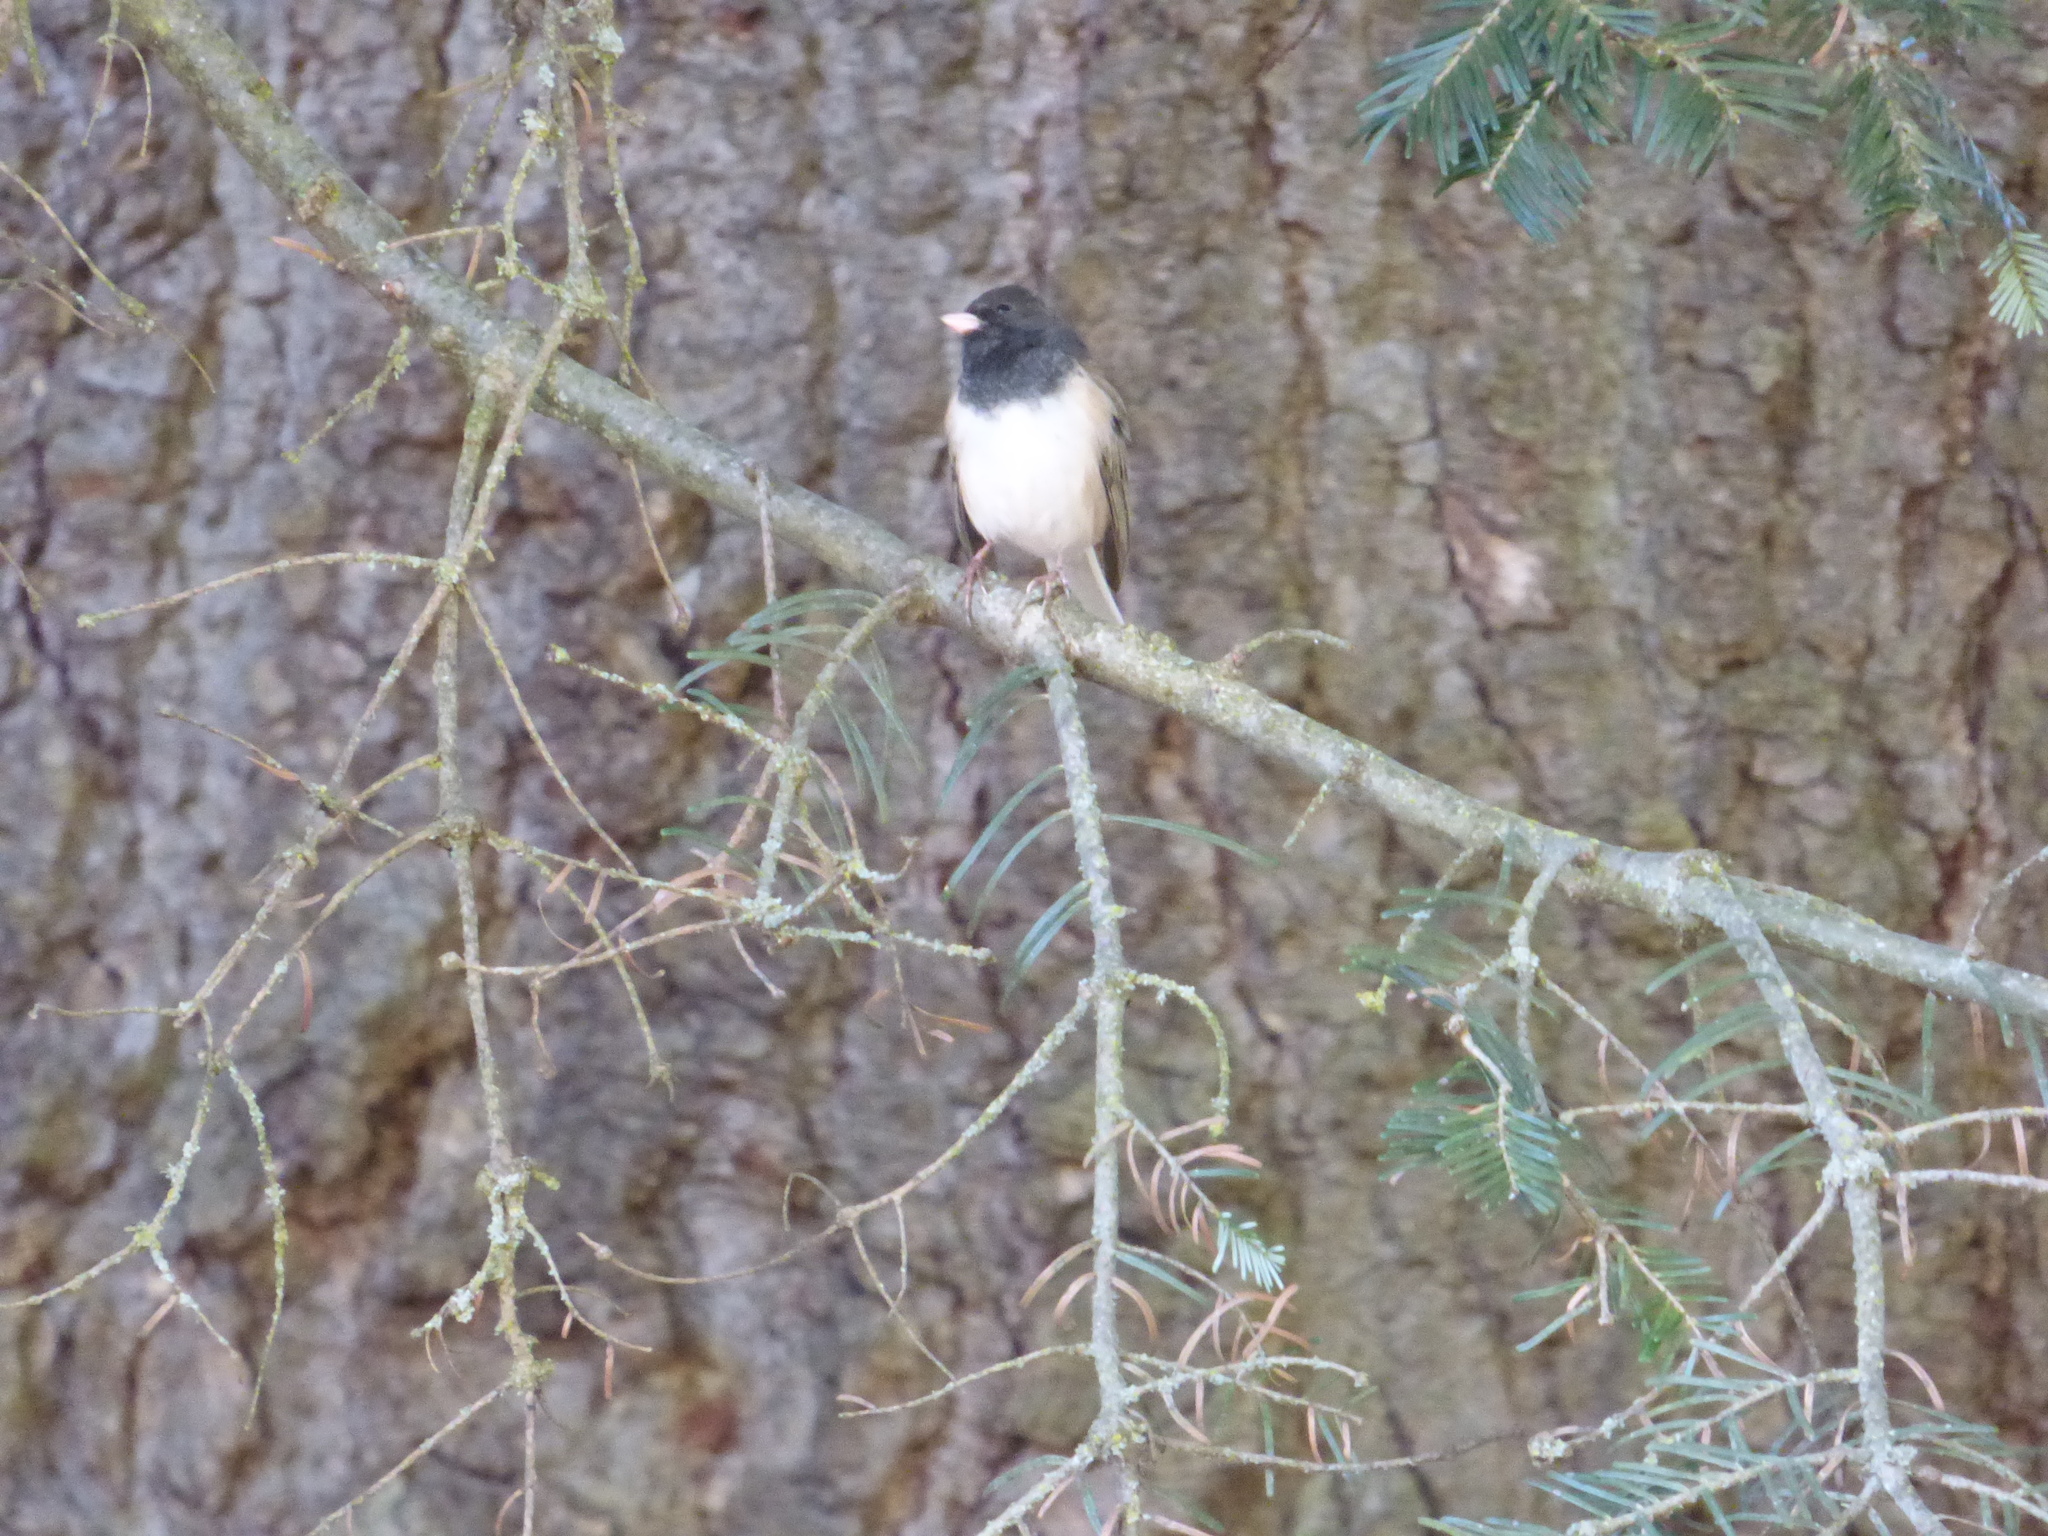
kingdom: Animalia
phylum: Chordata
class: Aves
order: Passeriformes
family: Passerellidae
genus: Junco
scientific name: Junco hyemalis
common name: Dark-eyed junco
